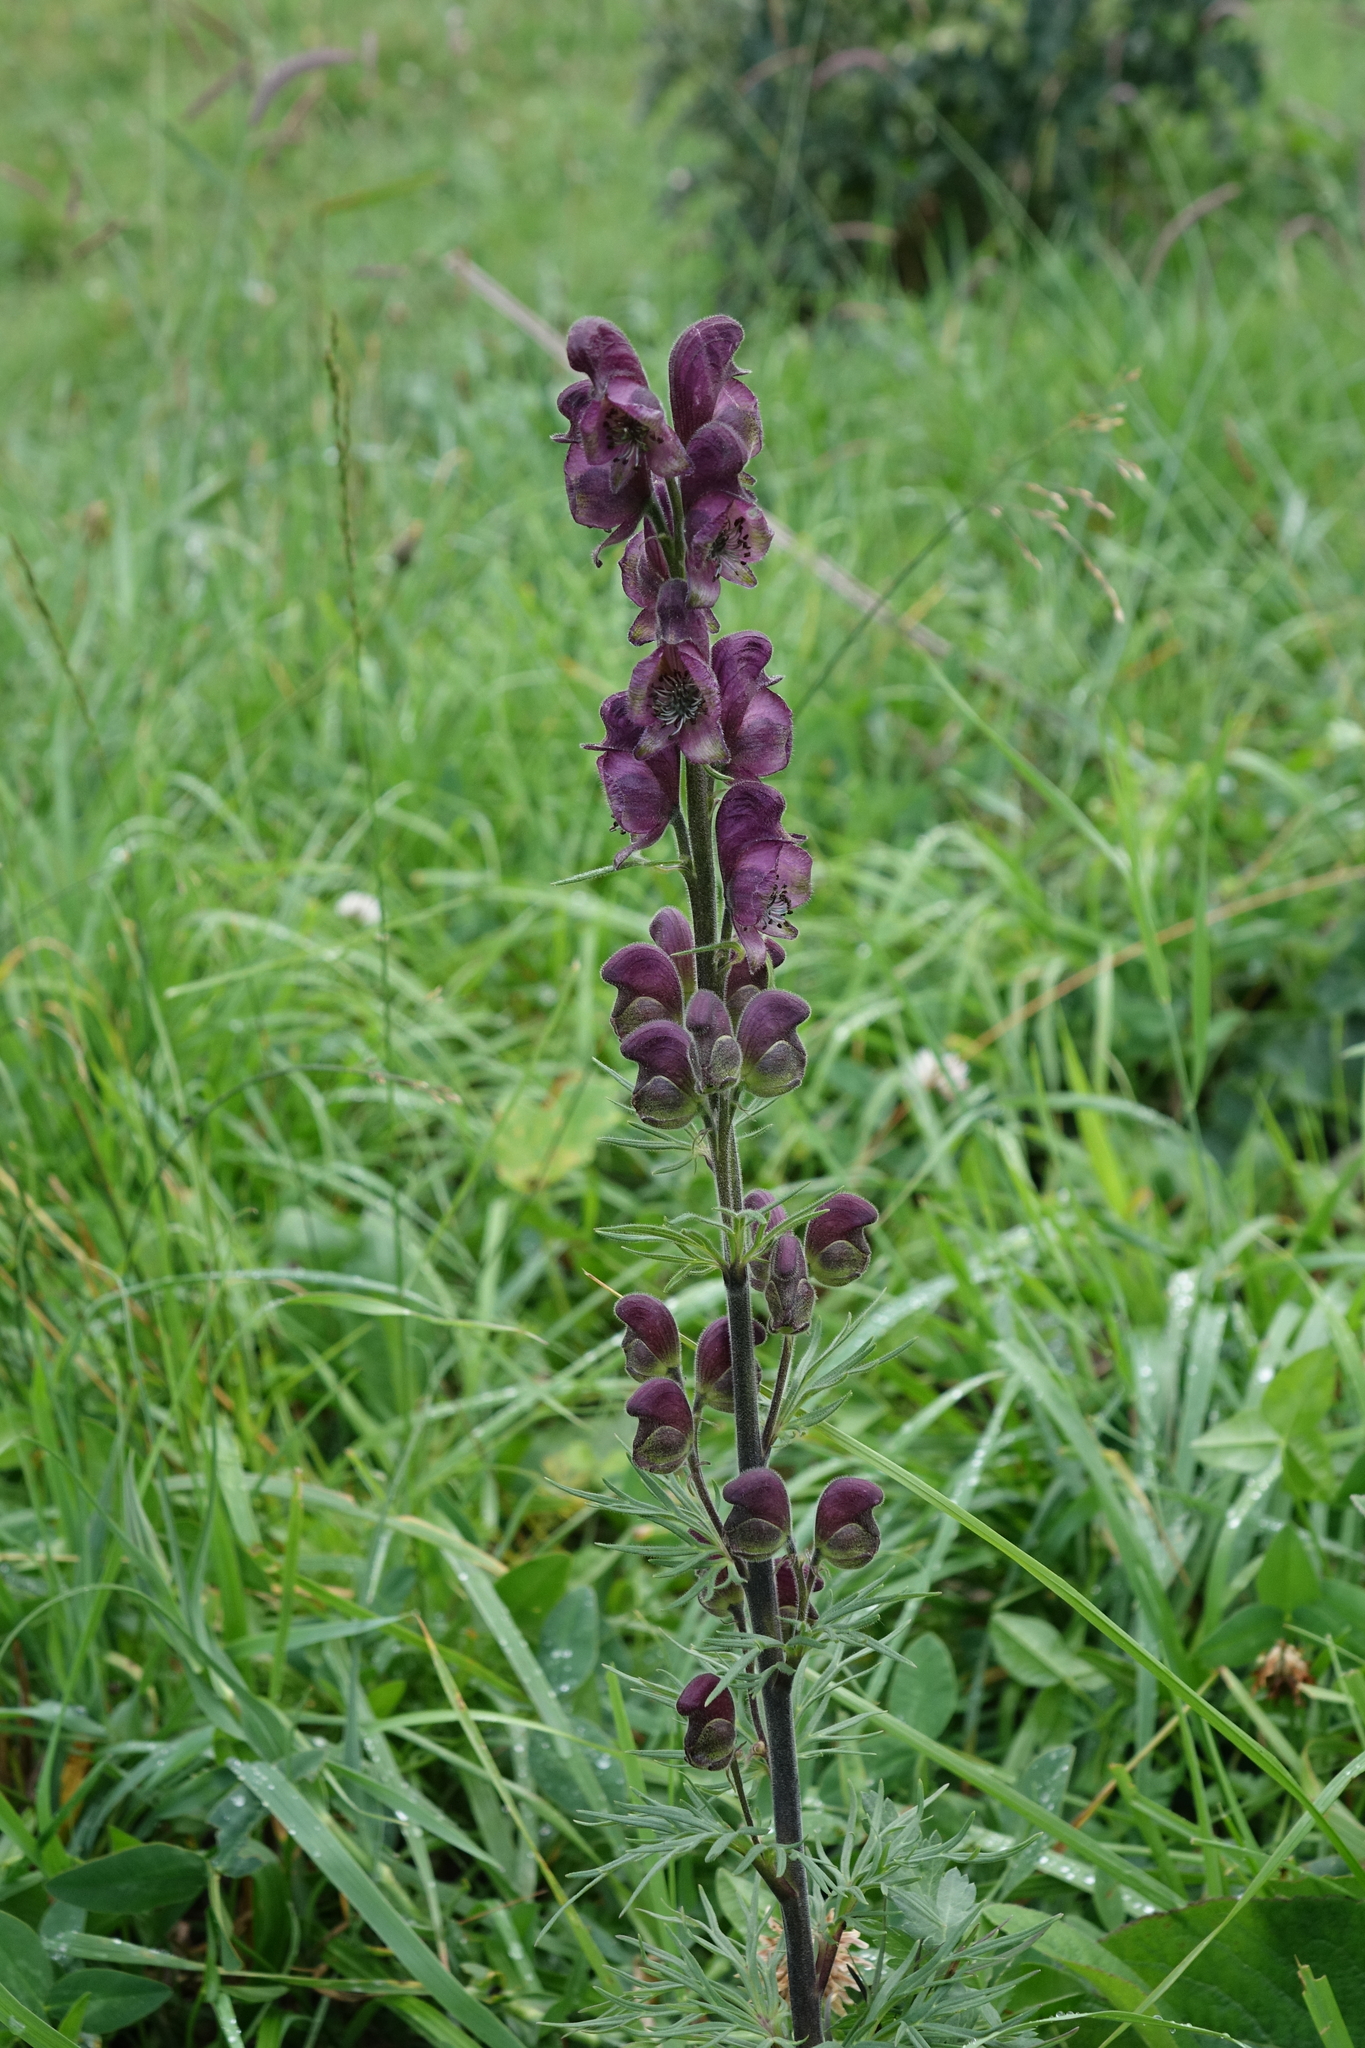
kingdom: Plantae
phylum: Tracheophyta
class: Magnoliopsida
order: Ranunculales
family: Ranunculaceae
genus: Aconitum
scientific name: Aconitum anthora
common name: Yellow monkshood
